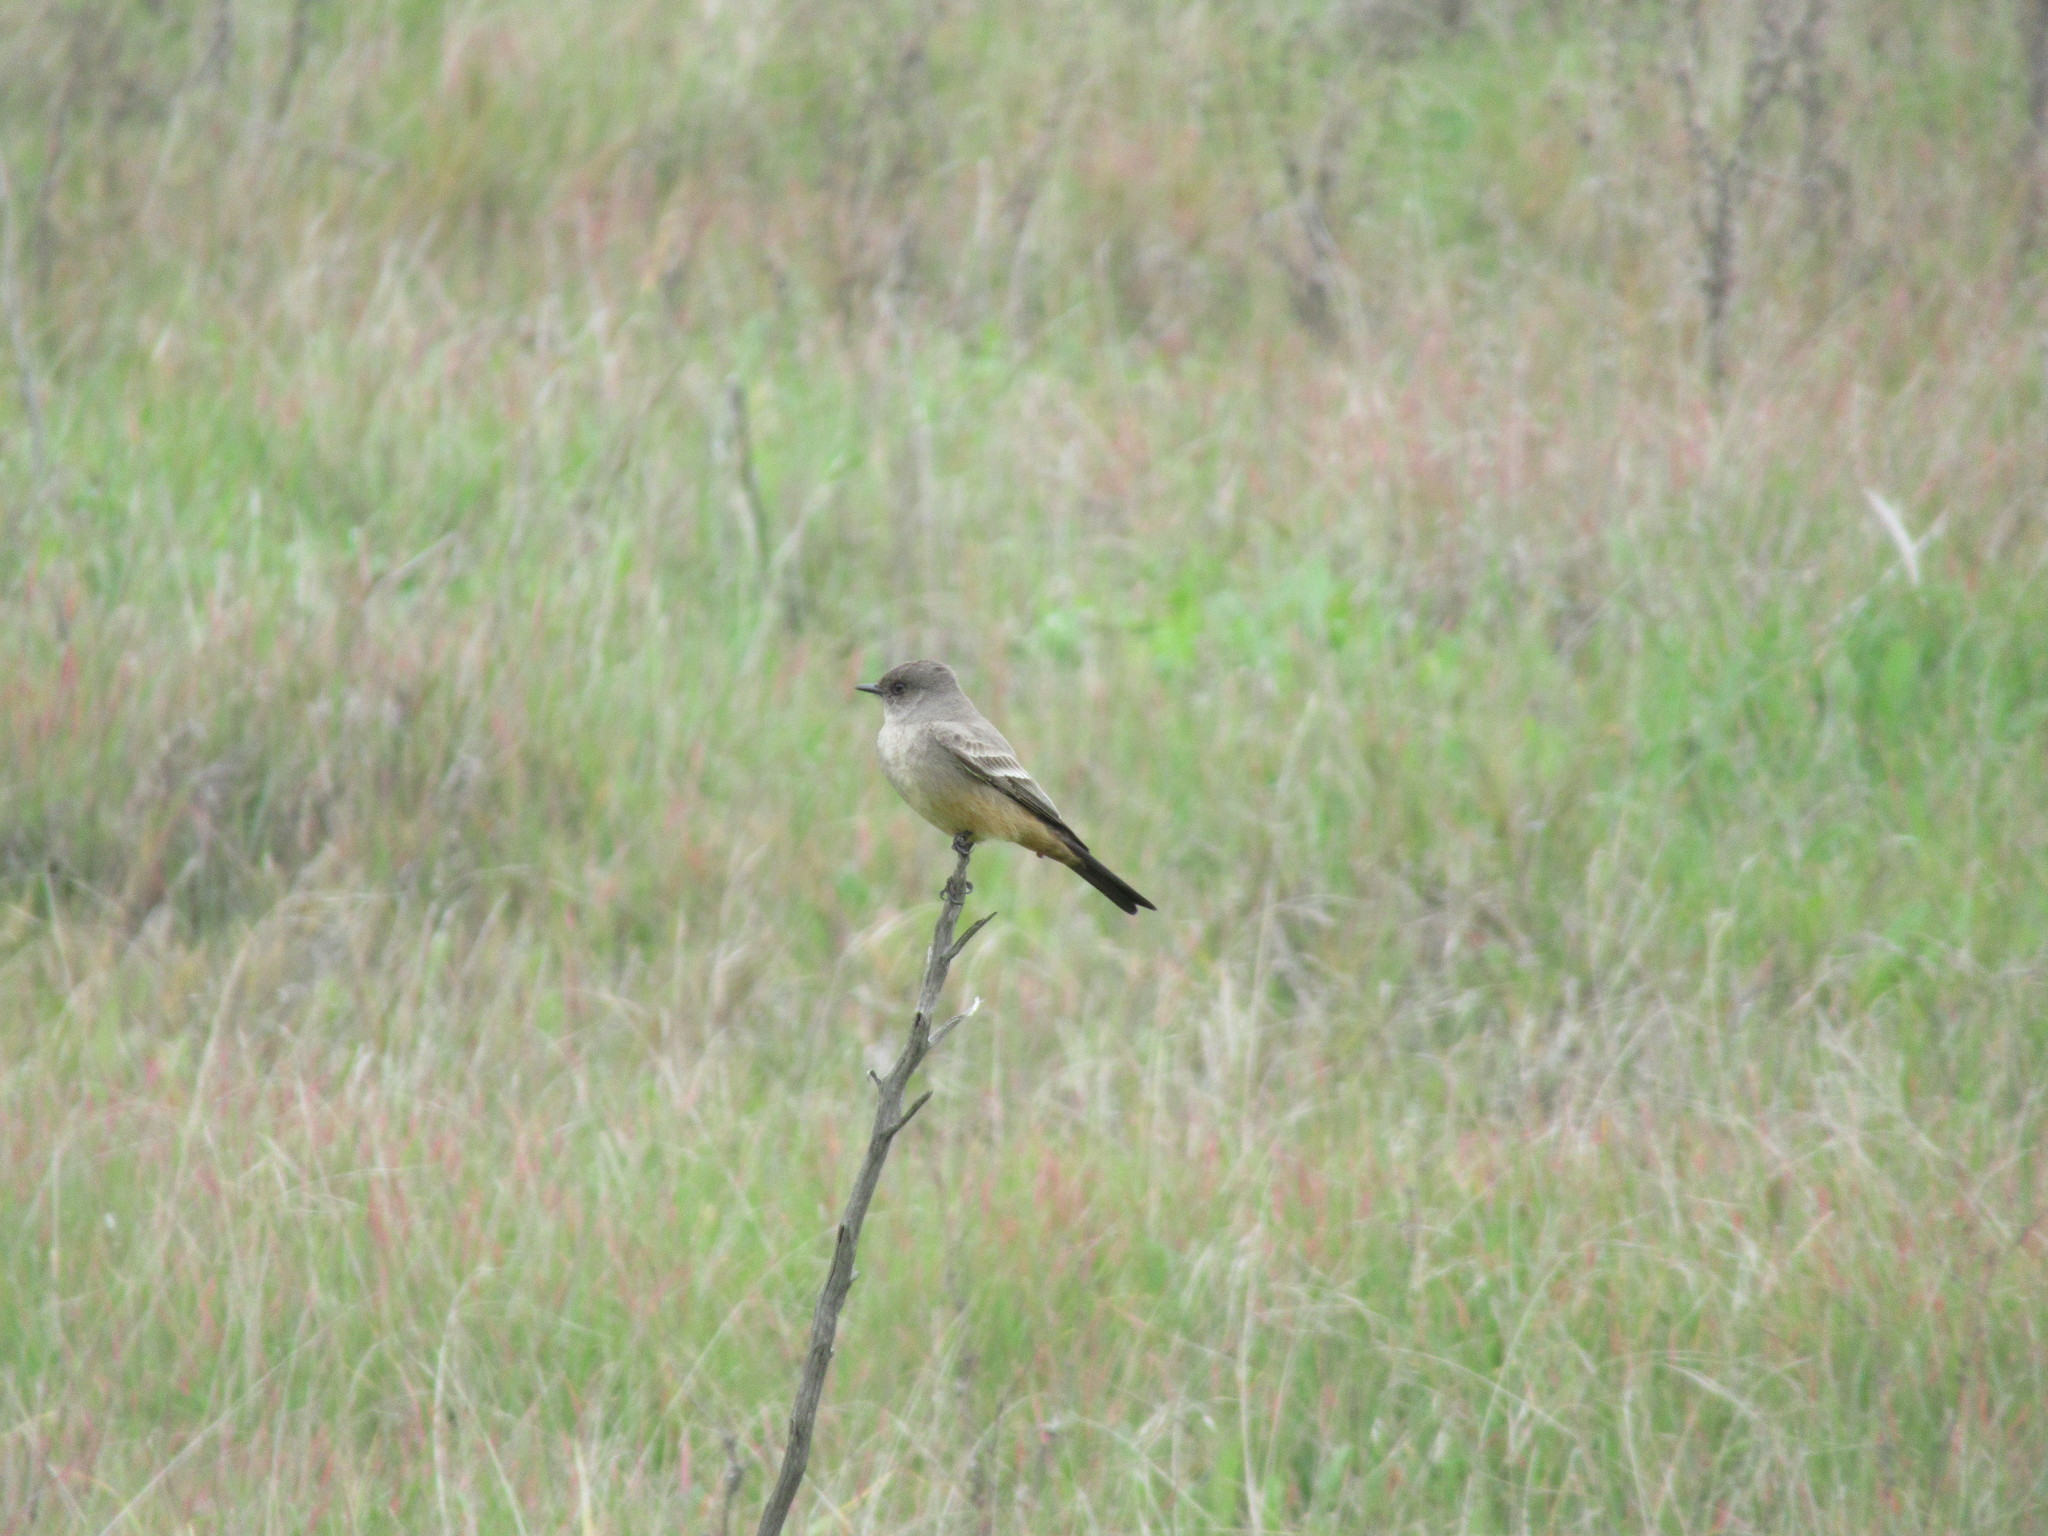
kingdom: Animalia
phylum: Chordata
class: Aves
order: Passeriformes
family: Tyrannidae
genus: Sayornis
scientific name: Sayornis saya
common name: Say's phoebe
